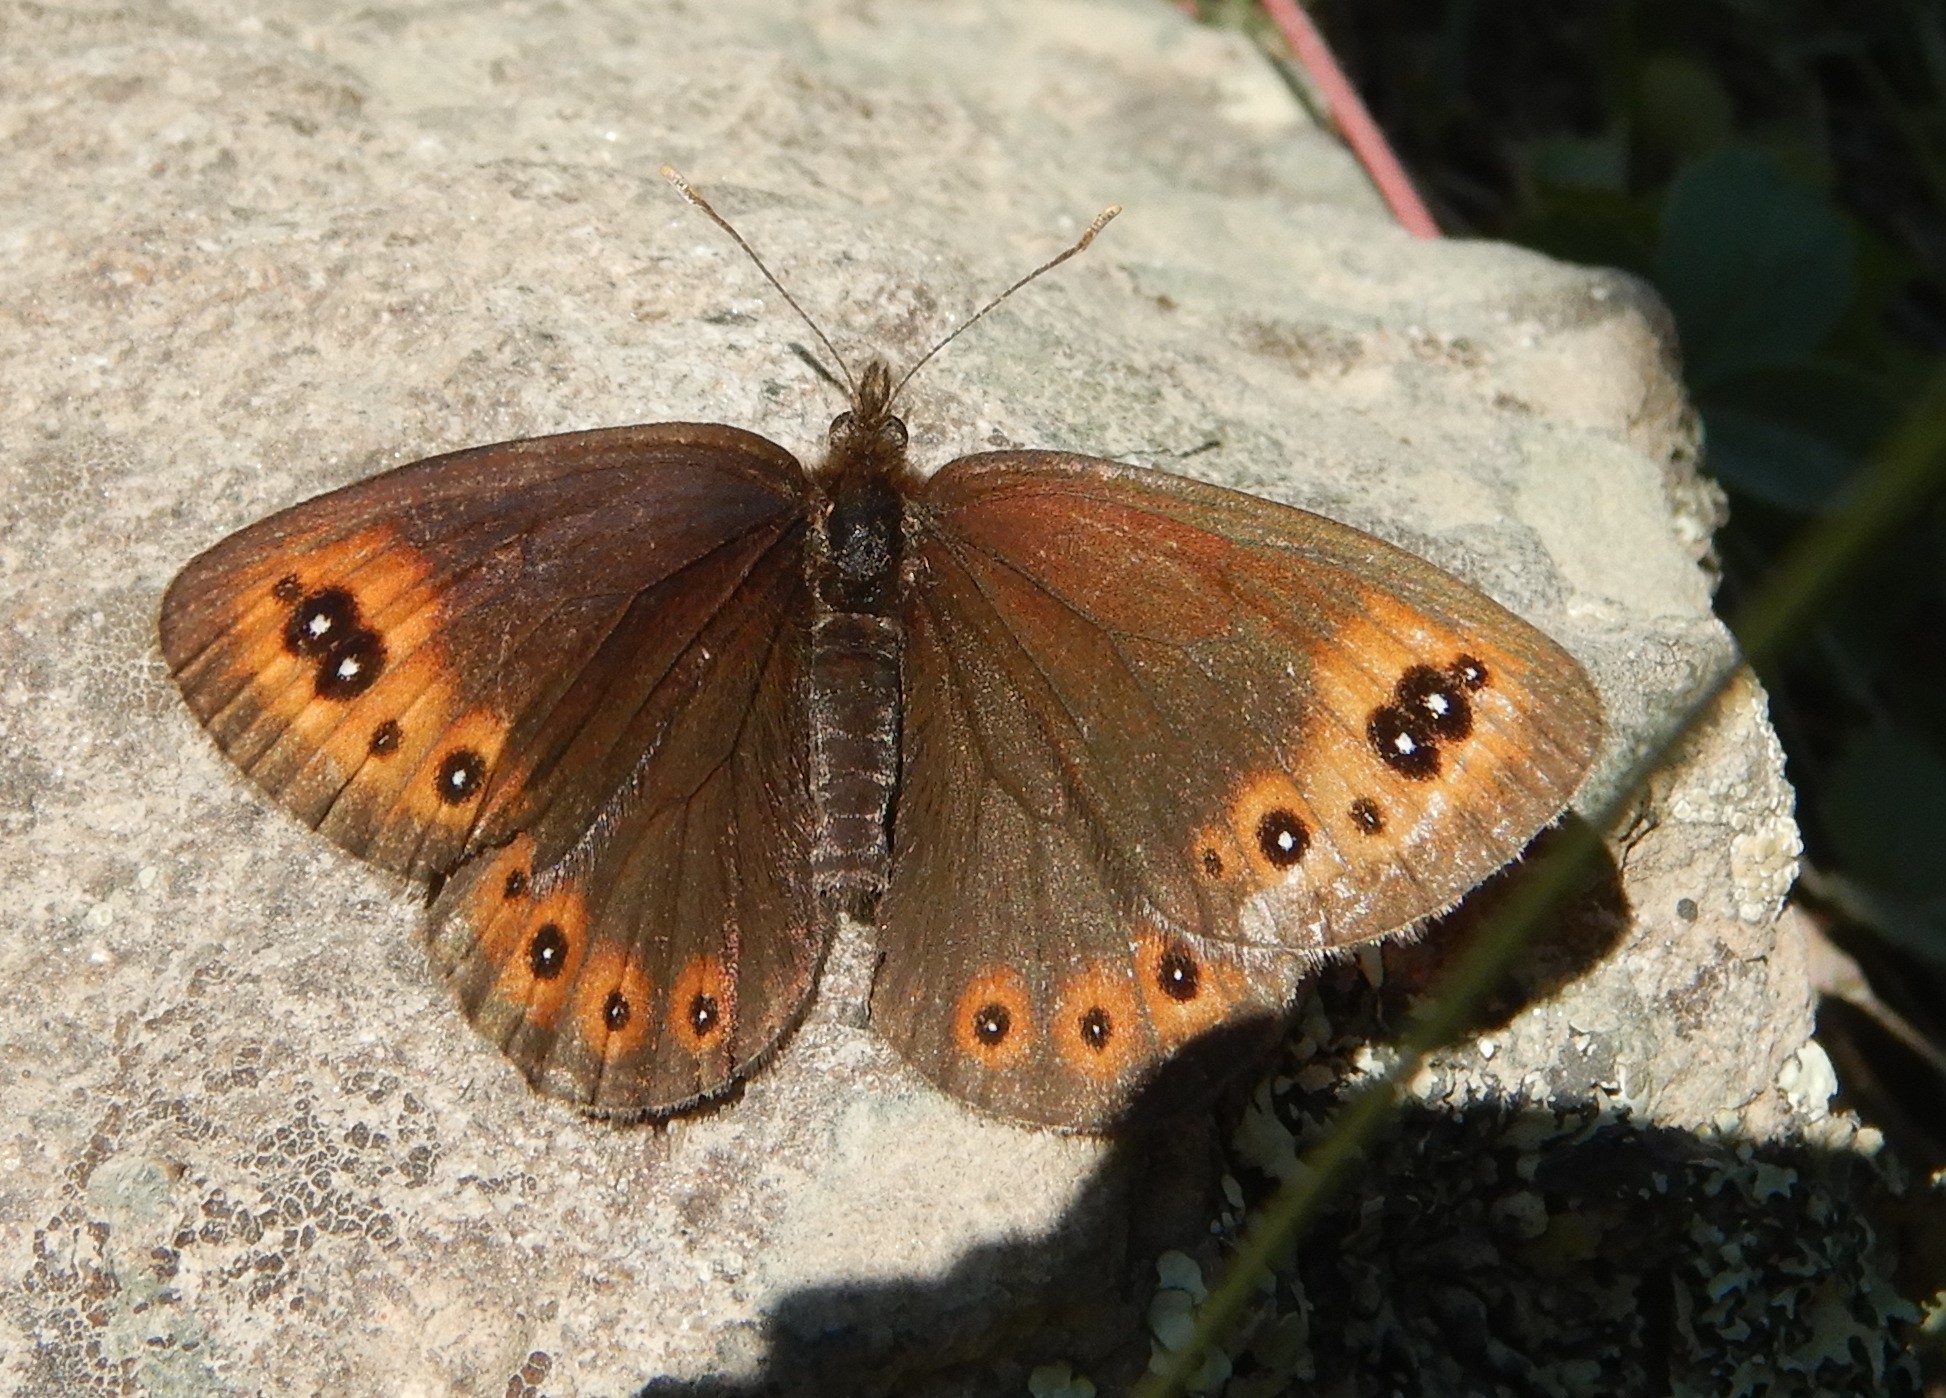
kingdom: Animalia
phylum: Arthropoda
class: Insecta
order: Lepidoptera
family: Nymphalidae
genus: Erebia
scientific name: Erebia epipsodea
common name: Common alpine
